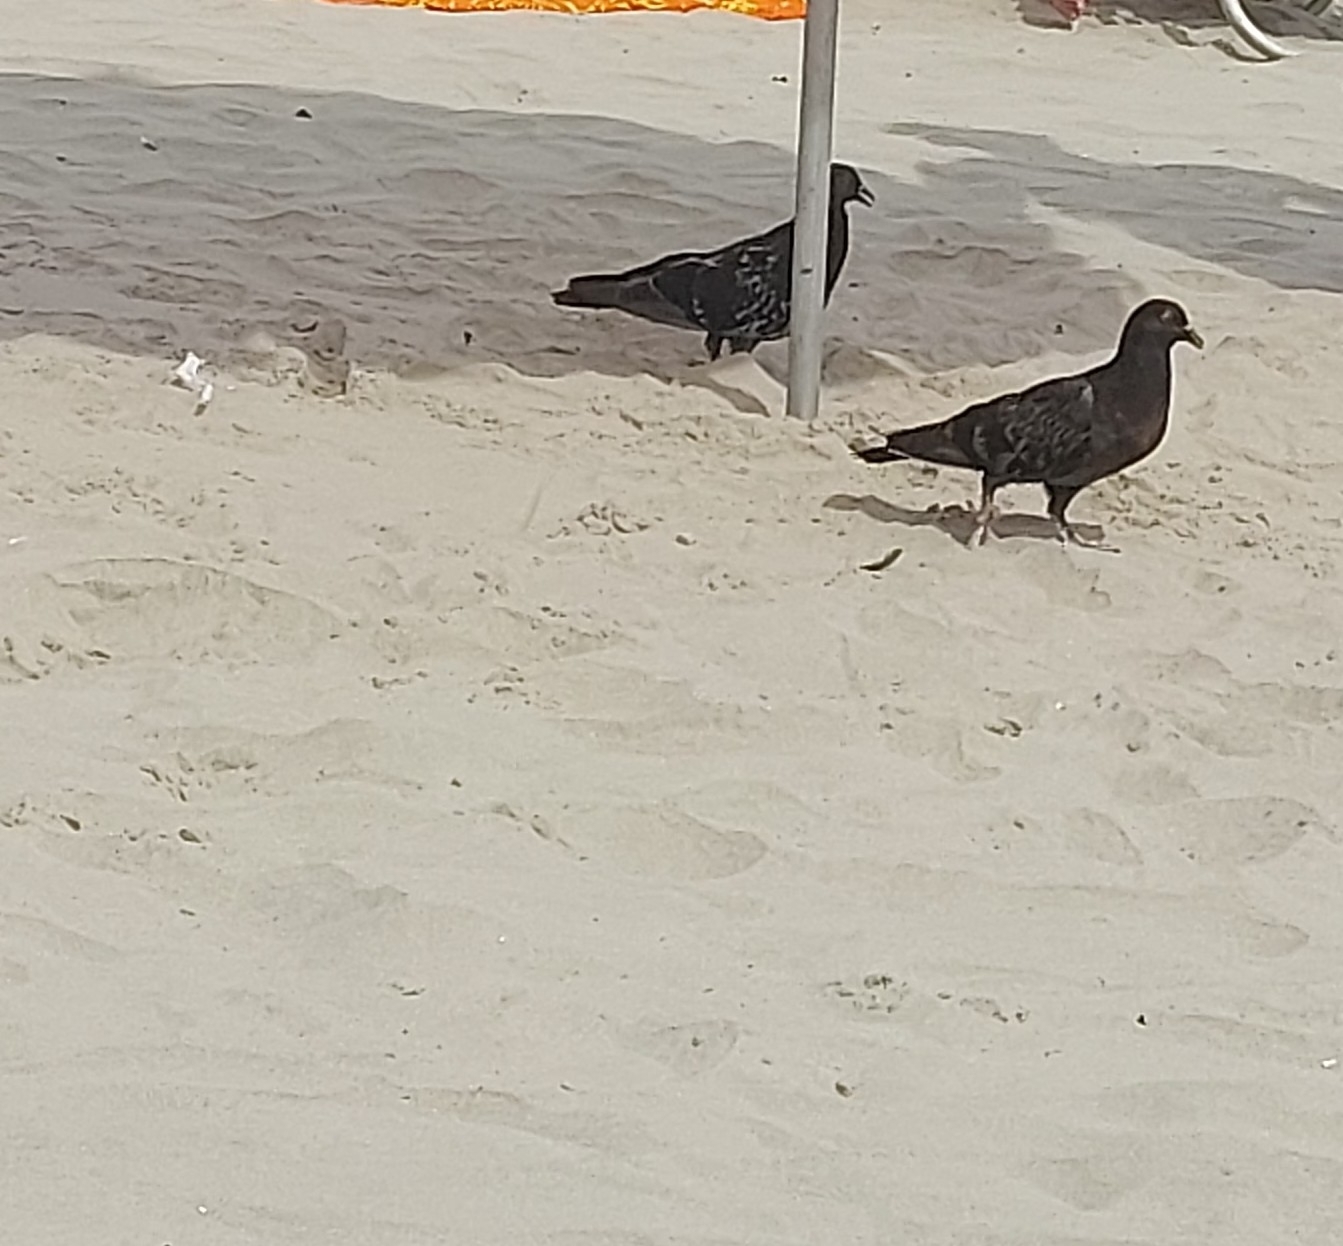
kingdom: Animalia
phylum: Chordata
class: Aves
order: Columbiformes
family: Columbidae
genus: Columba
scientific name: Columba livia
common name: Rock pigeon
